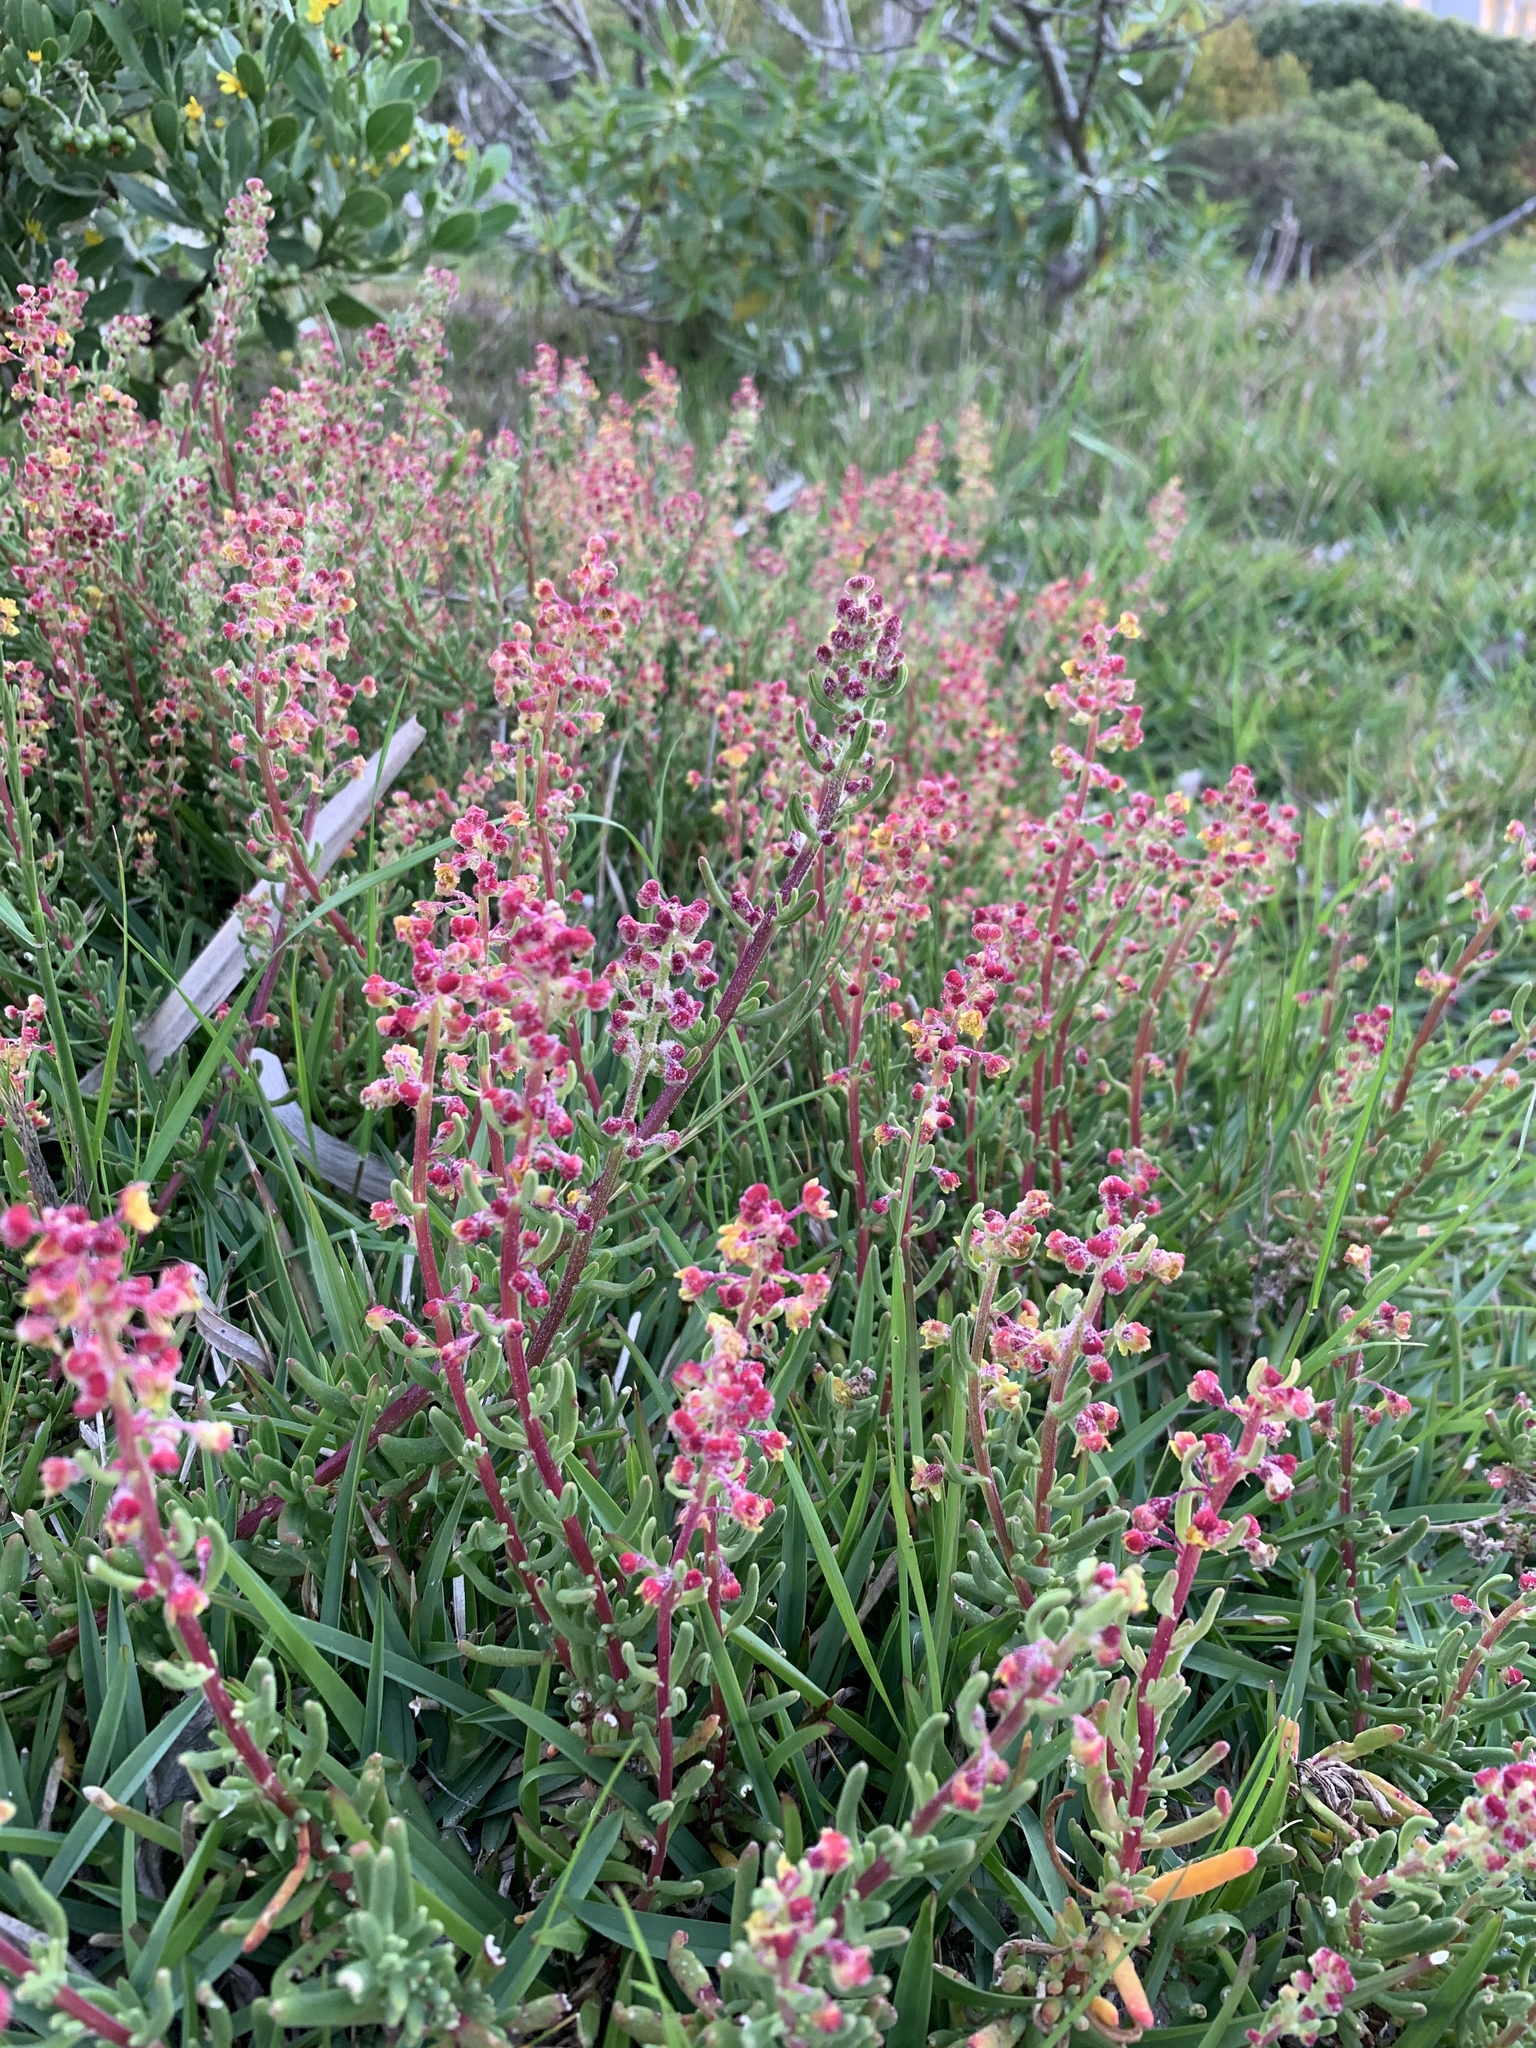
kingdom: Plantae
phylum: Tracheophyta
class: Magnoliopsida
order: Caryophyllales
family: Aizoaceae
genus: Tetragonia
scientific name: Tetragonia fruticosa
